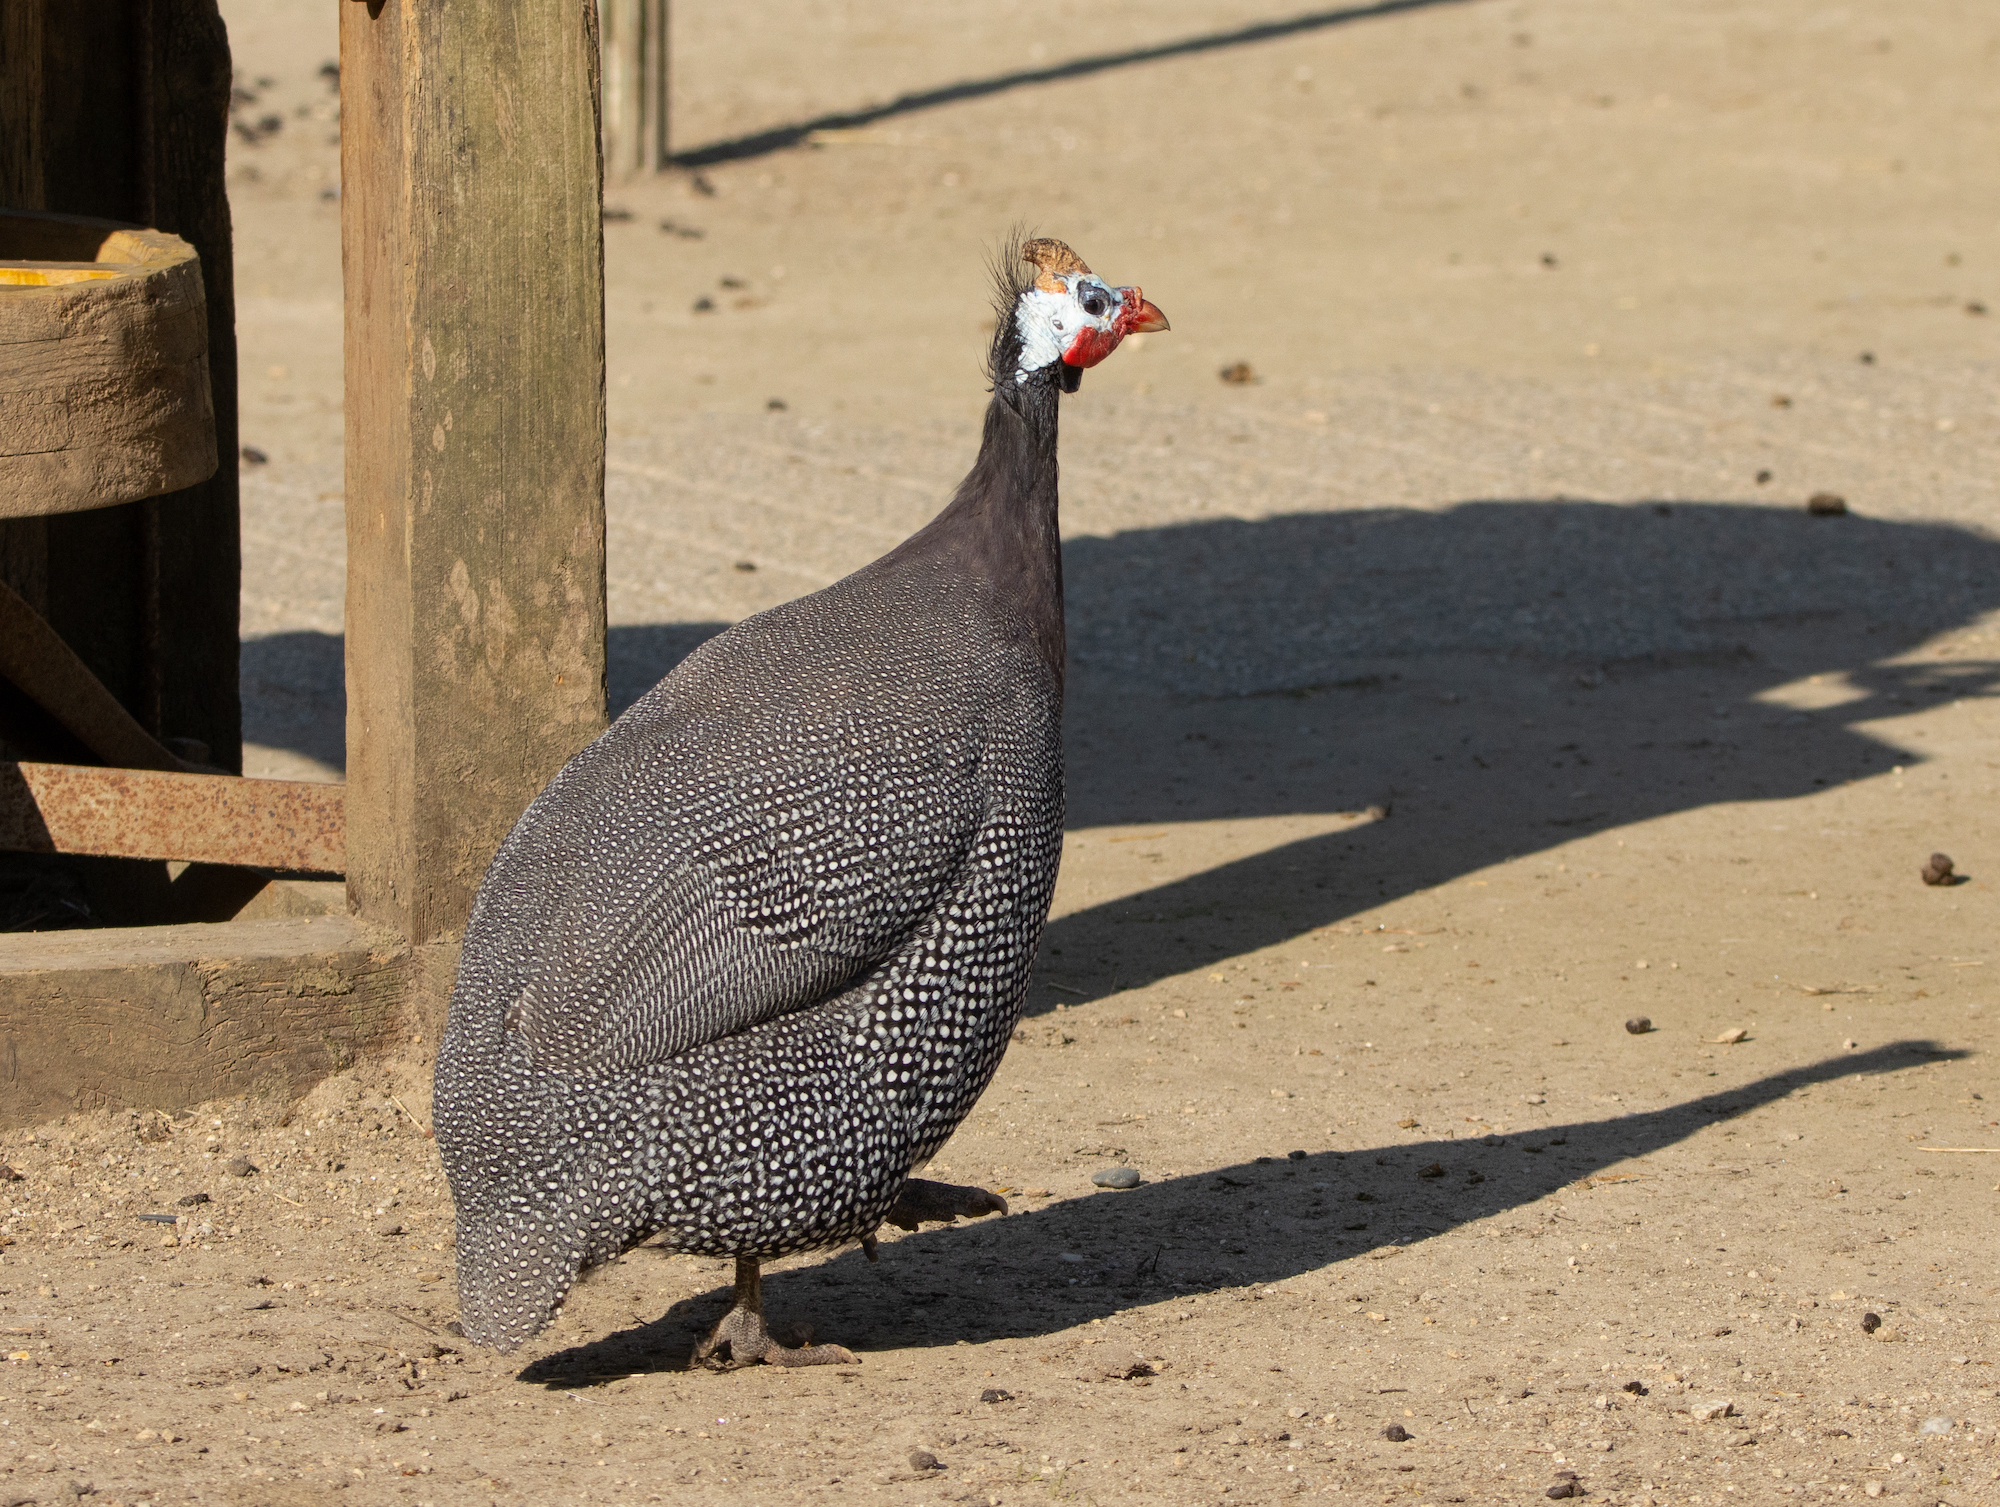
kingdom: Animalia
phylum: Chordata
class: Aves
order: Galliformes
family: Numididae
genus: Numida
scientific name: Numida meleagris
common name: Helmeted guineafowl
